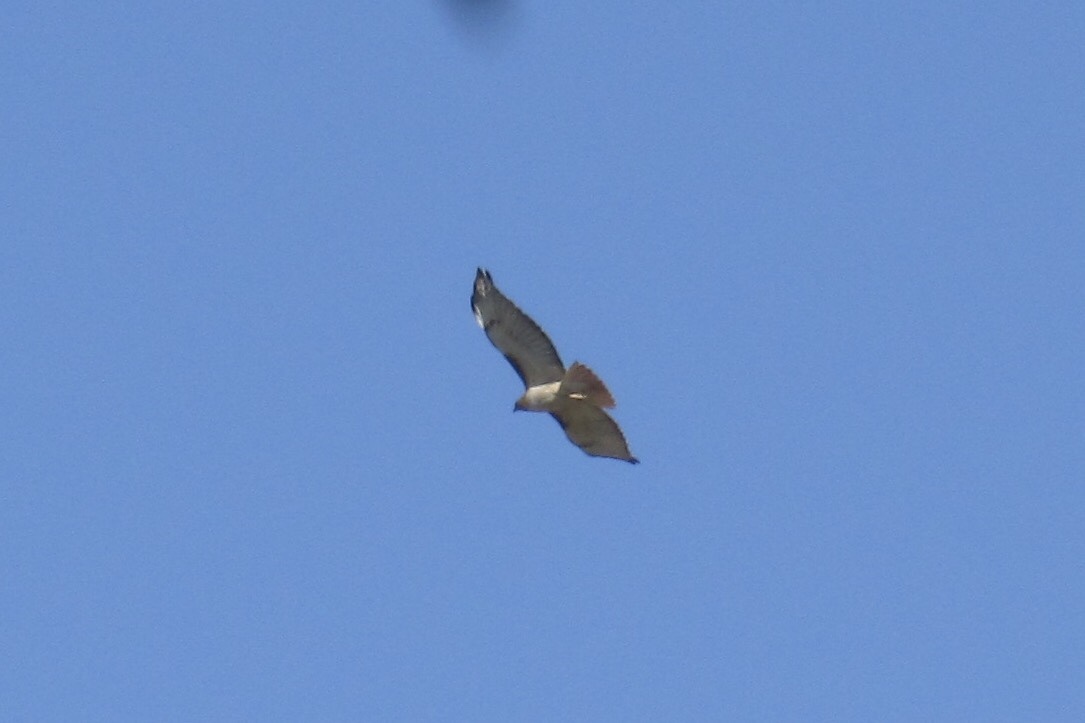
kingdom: Animalia
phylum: Chordata
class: Aves
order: Accipitriformes
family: Accipitridae
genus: Buteo
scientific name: Buteo jamaicensis
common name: Red-tailed hawk
